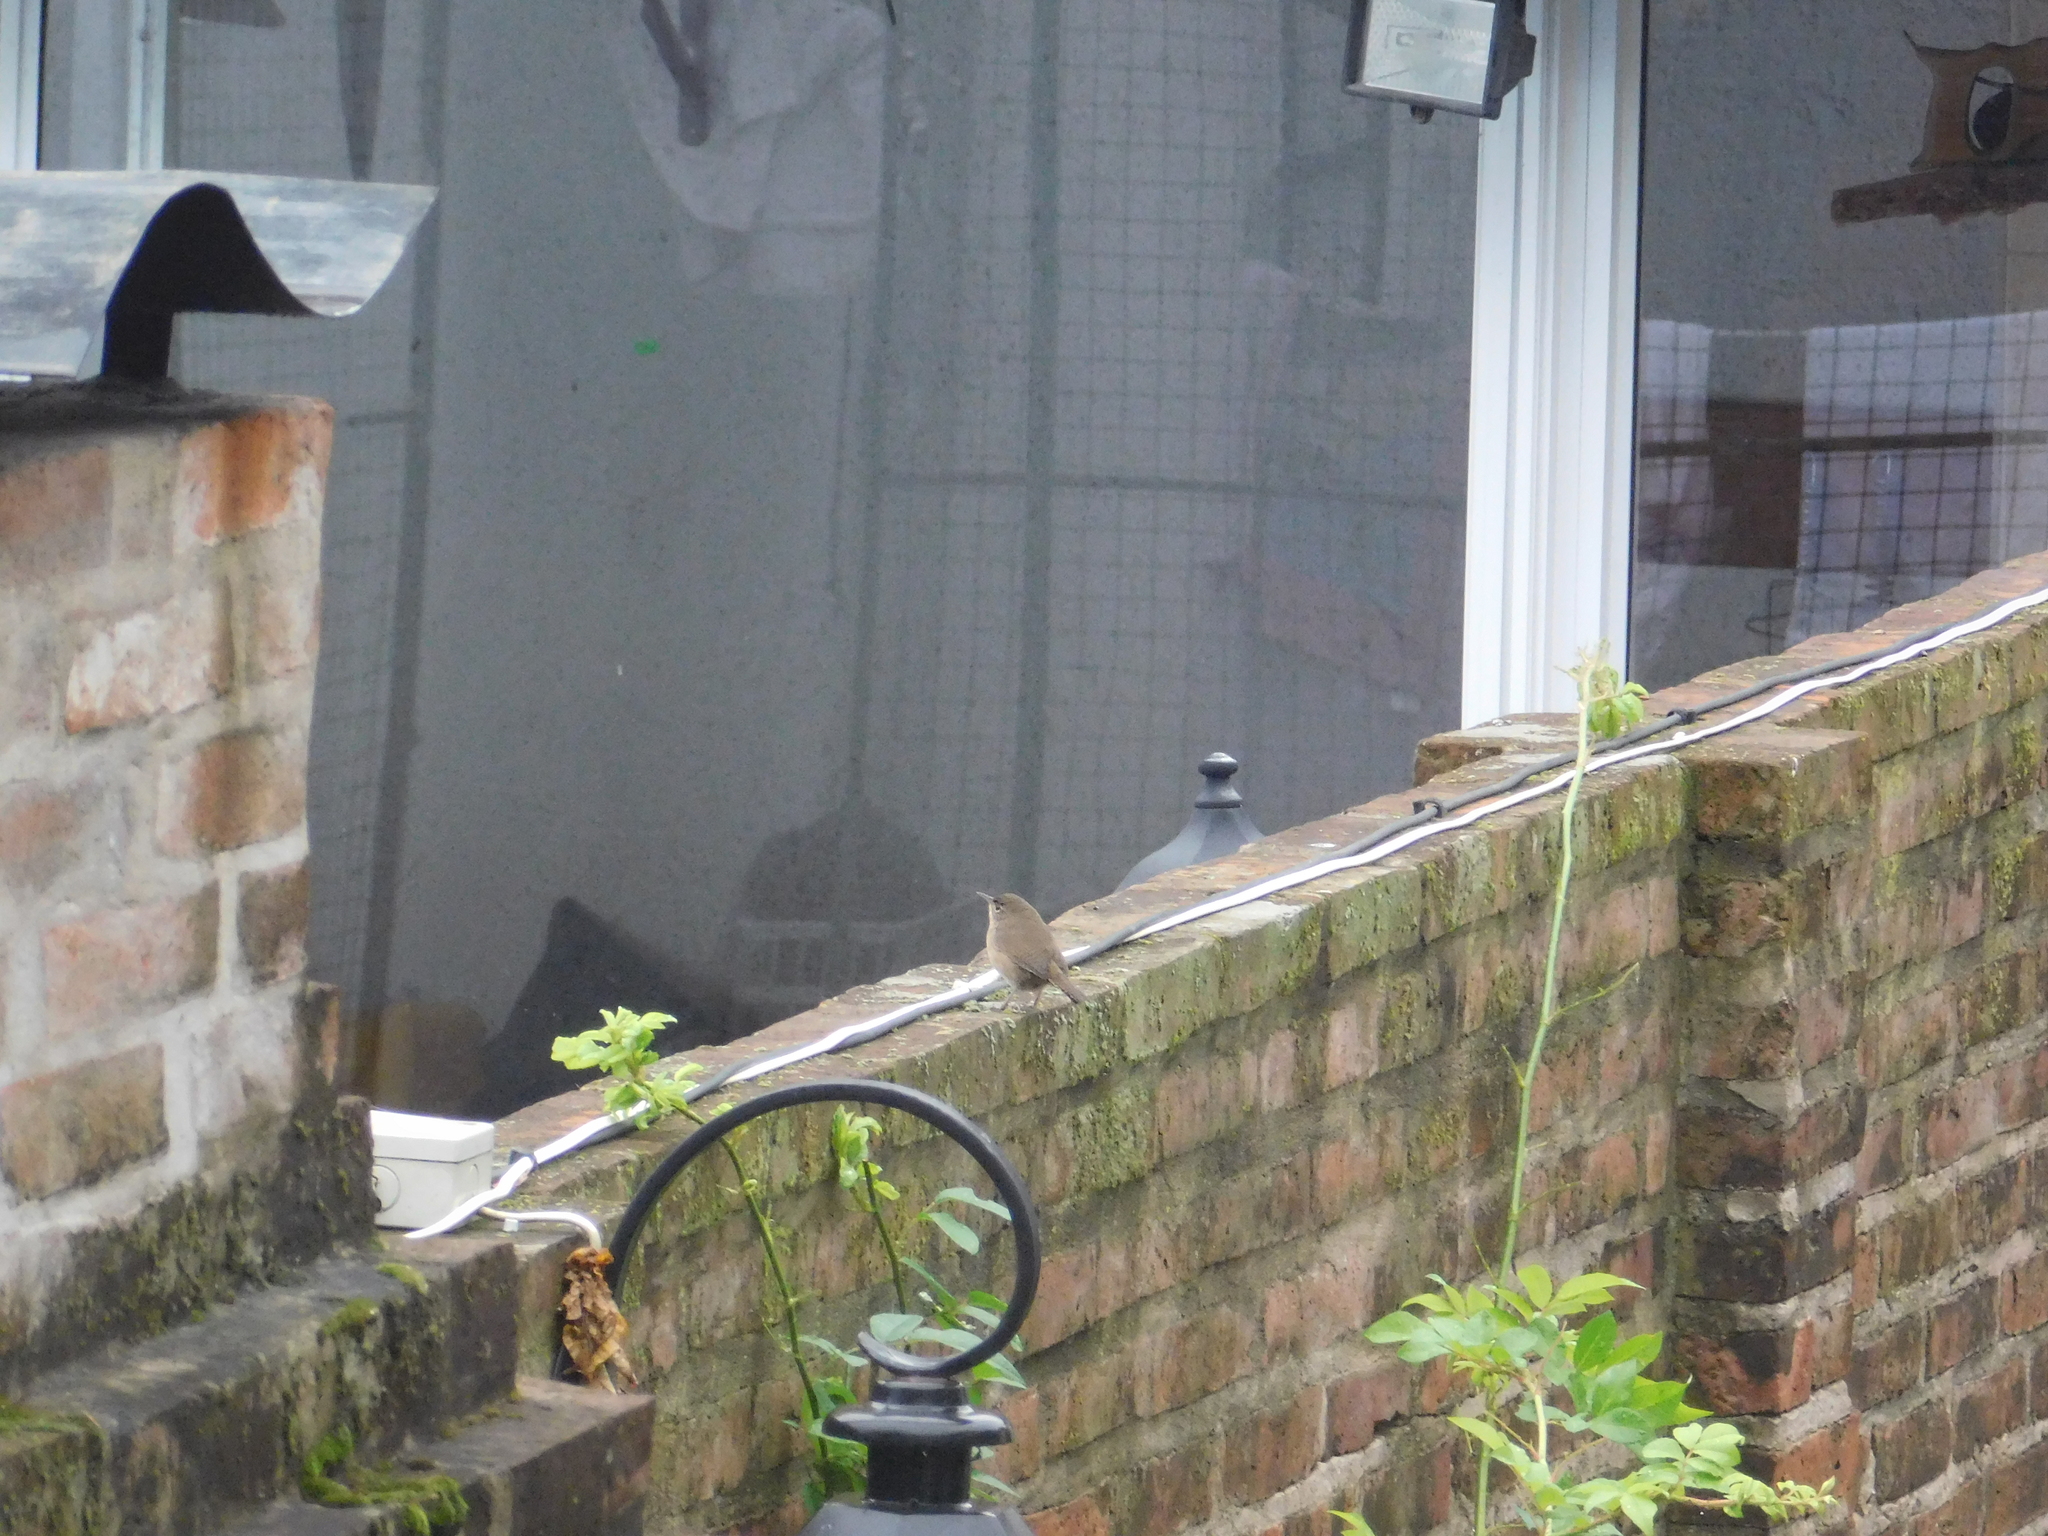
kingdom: Animalia
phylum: Chordata
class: Aves
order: Passeriformes
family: Troglodytidae
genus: Troglodytes
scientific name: Troglodytes aedon
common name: House wren
